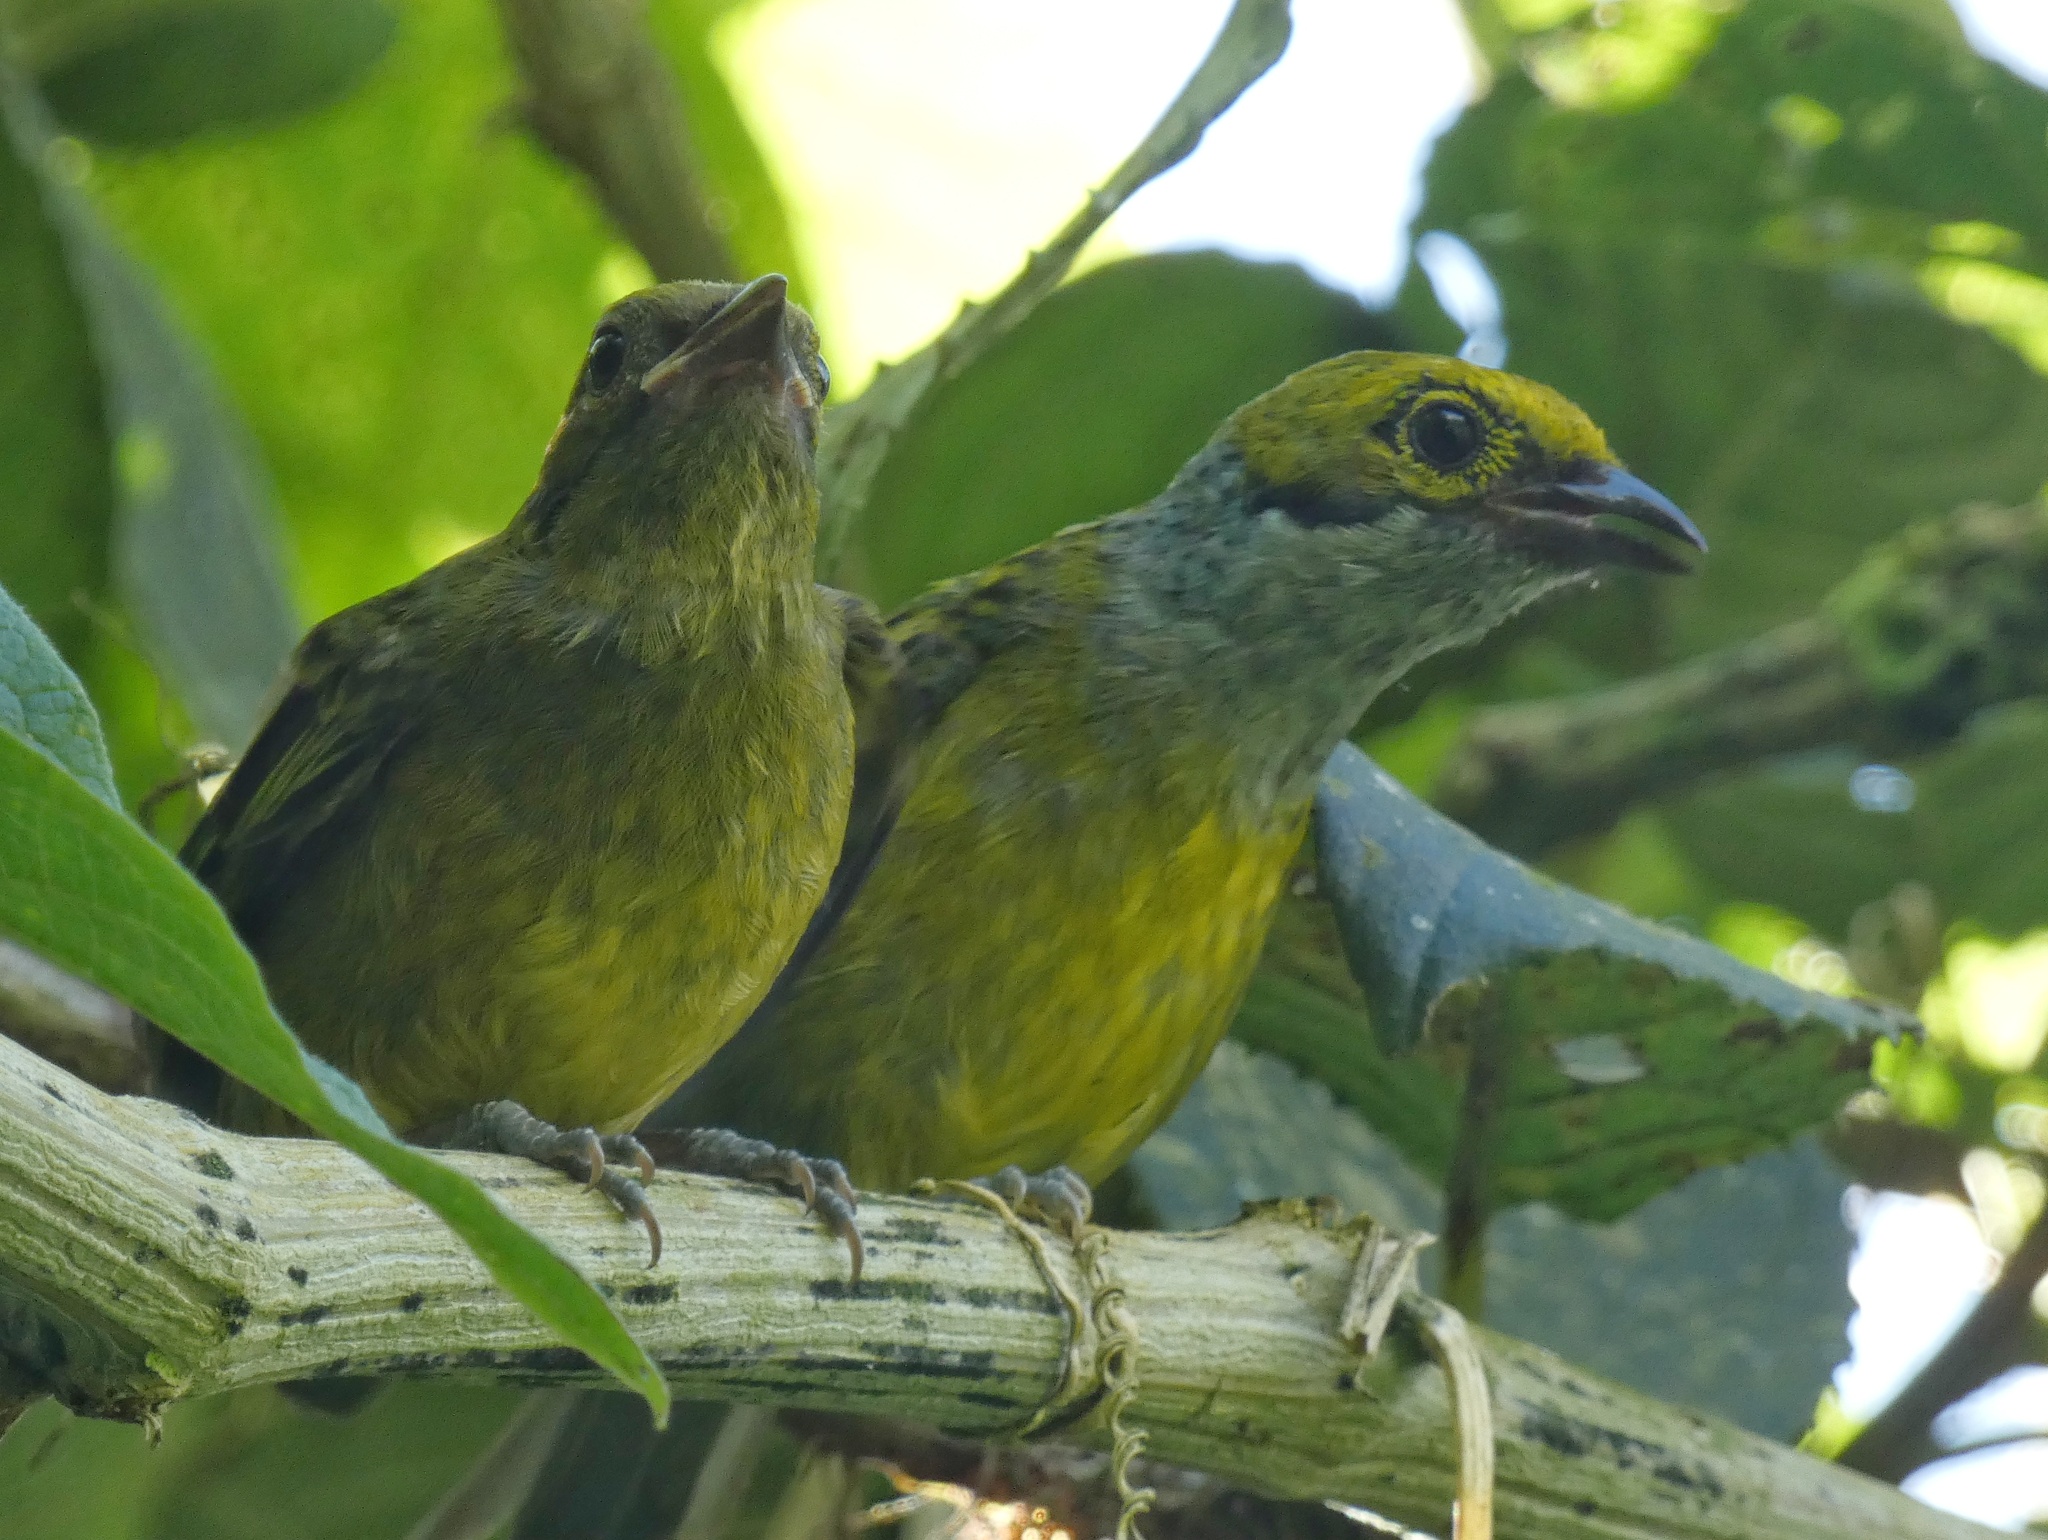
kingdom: Animalia
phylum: Chordata
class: Aves
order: Passeriformes
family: Thraupidae
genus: Tangara
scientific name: Tangara icterocephala
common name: Silver-throated tanager
